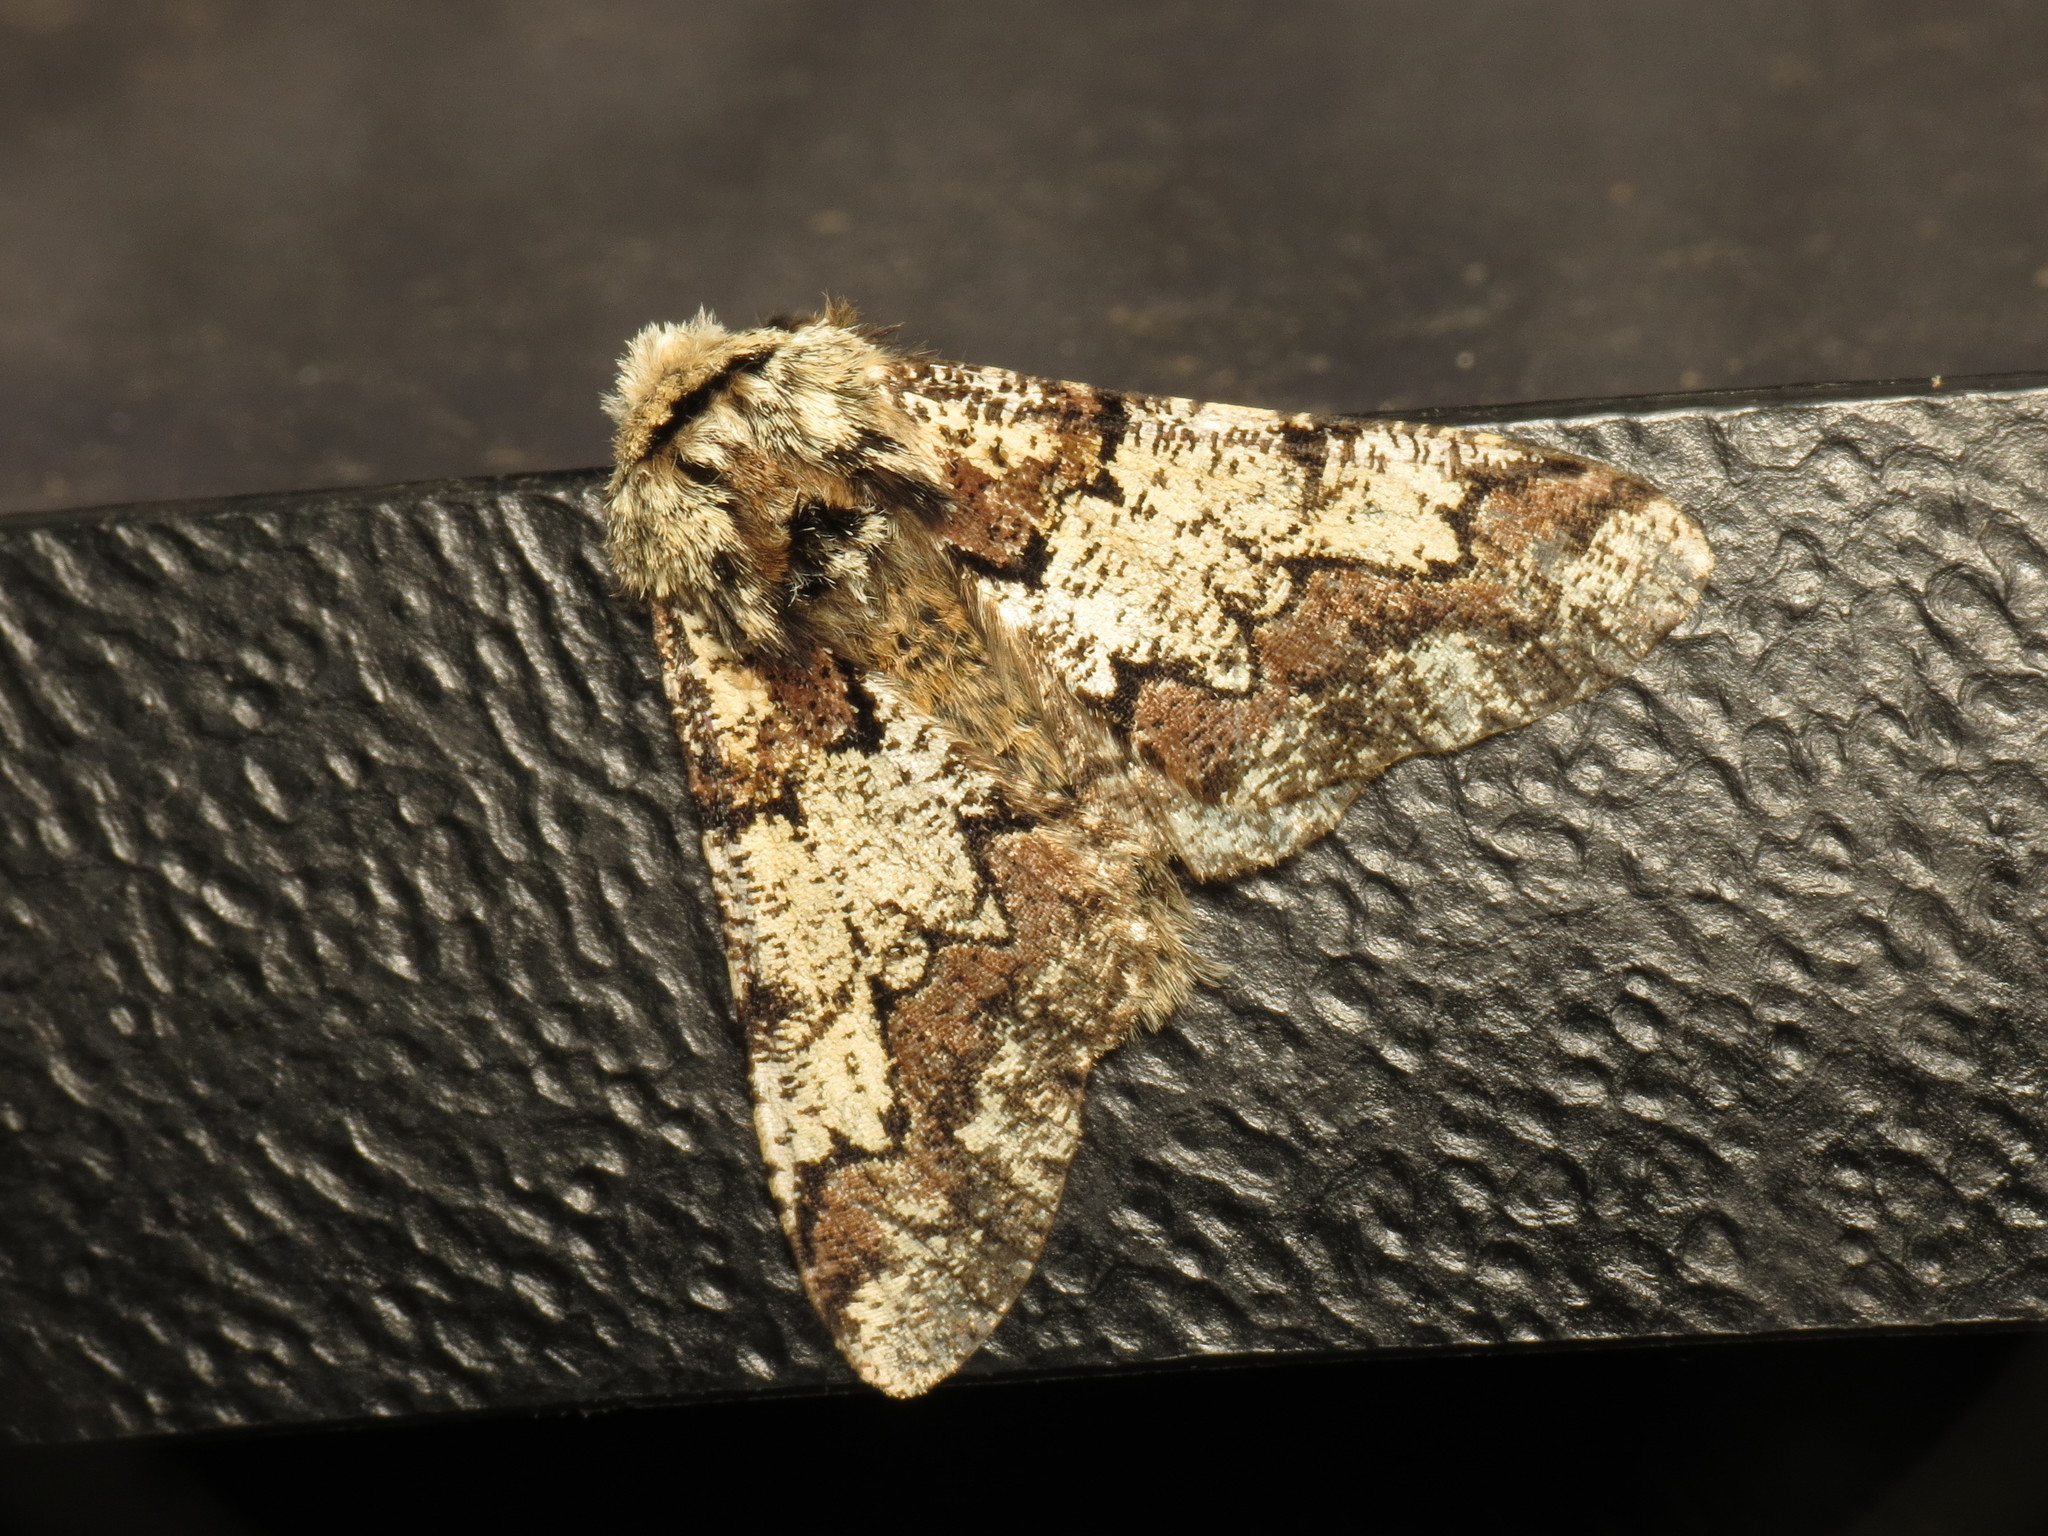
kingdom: Animalia
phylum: Arthropoda
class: Insecta
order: Lepidoptera
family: Geometridae
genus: Biston
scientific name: Biston strataria
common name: Oak beauty
